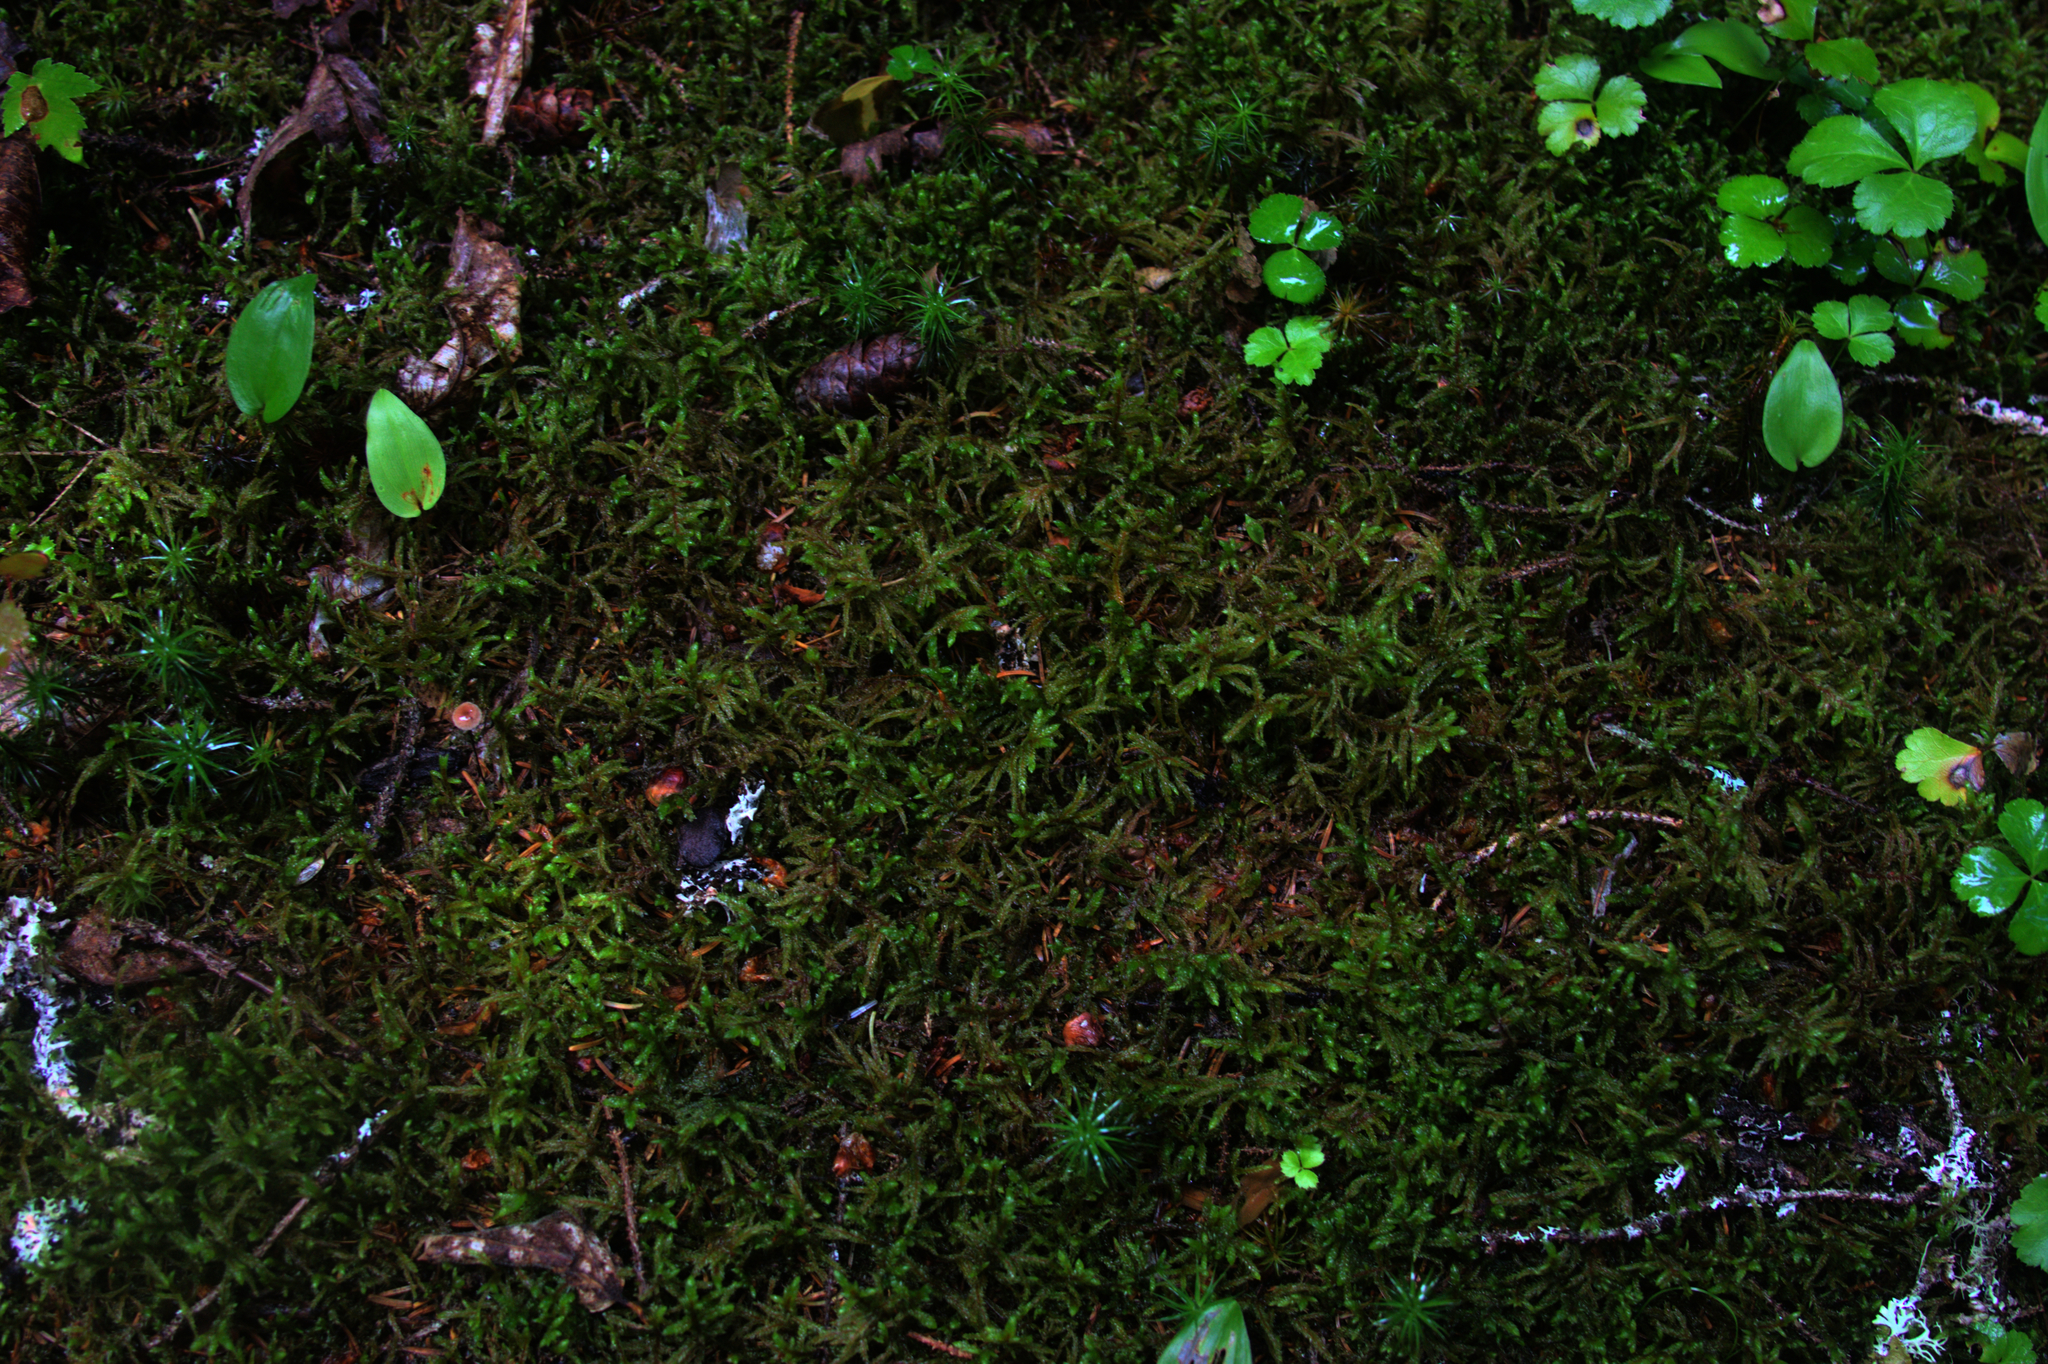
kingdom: Plantae
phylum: Tracheophyta
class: Magnoliopsida
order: Ranunculales
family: Ranunculaceae
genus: Coptis
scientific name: Coptis trifolia
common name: Canker-root
